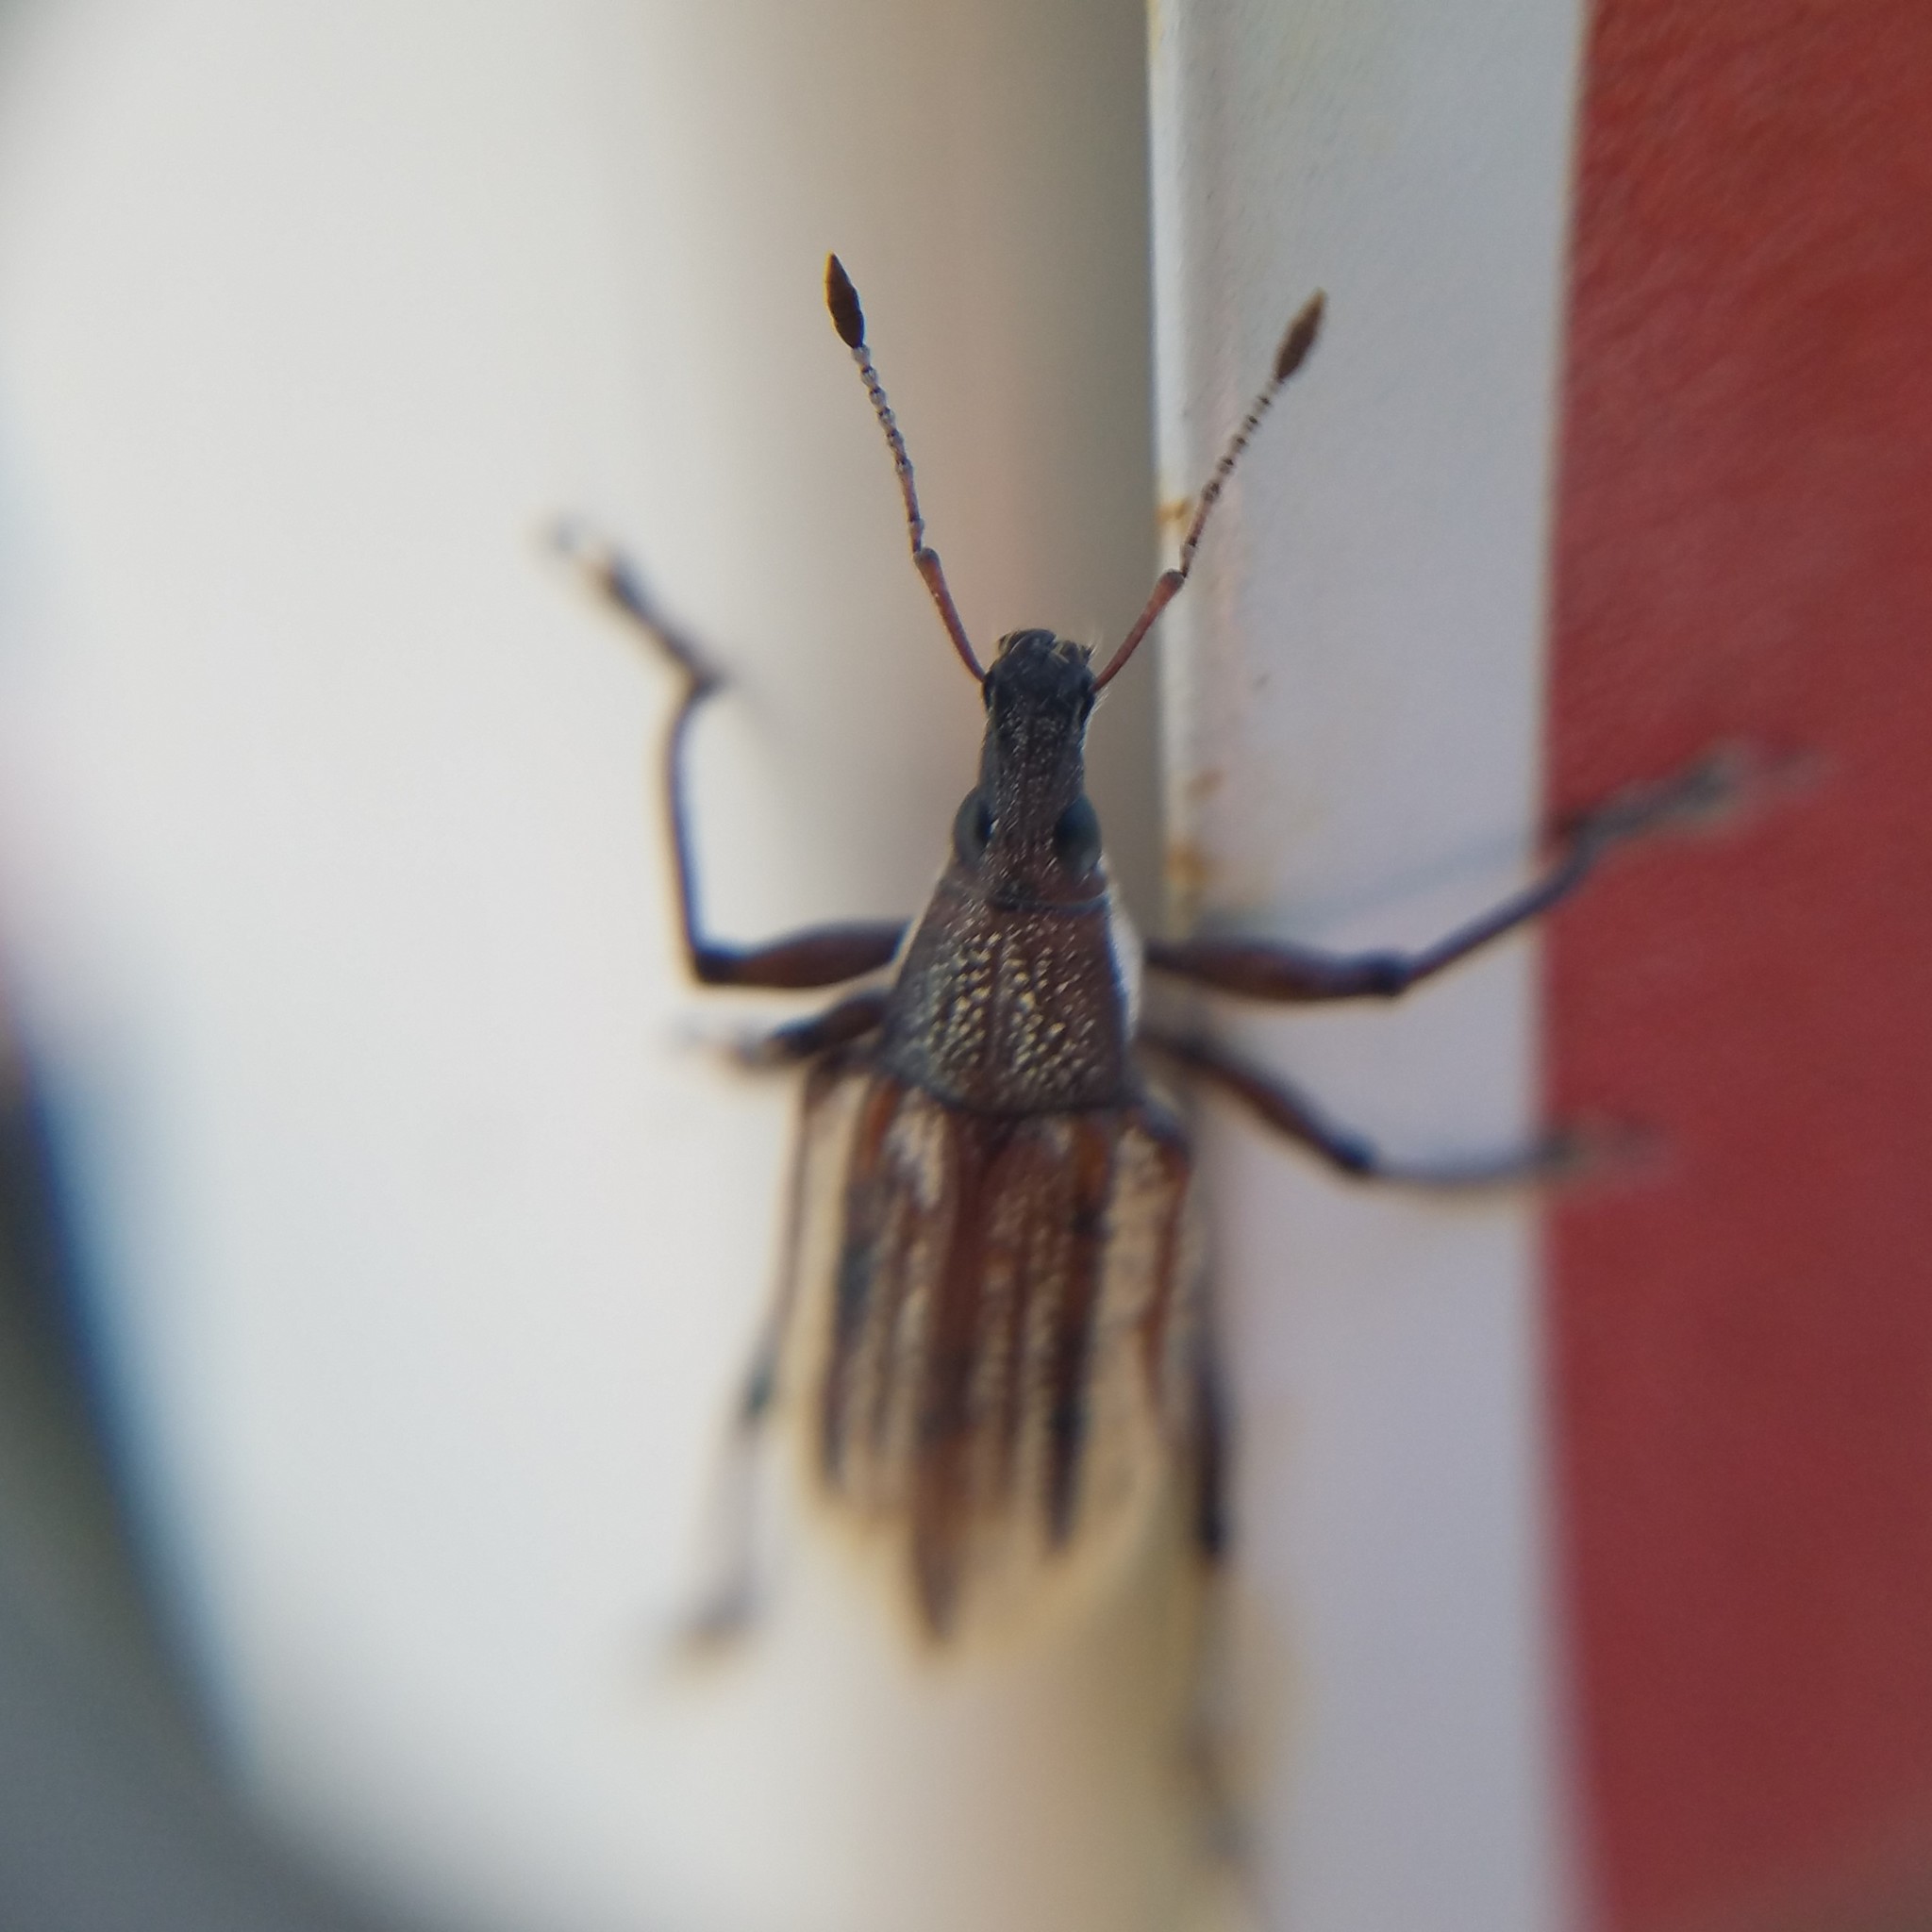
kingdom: Animalia
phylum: Arthropoda
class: Insecta
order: Coleoptera
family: Curculionidae
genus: Diaprepes
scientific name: Diaprepes abbreviatus
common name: Root weevil
